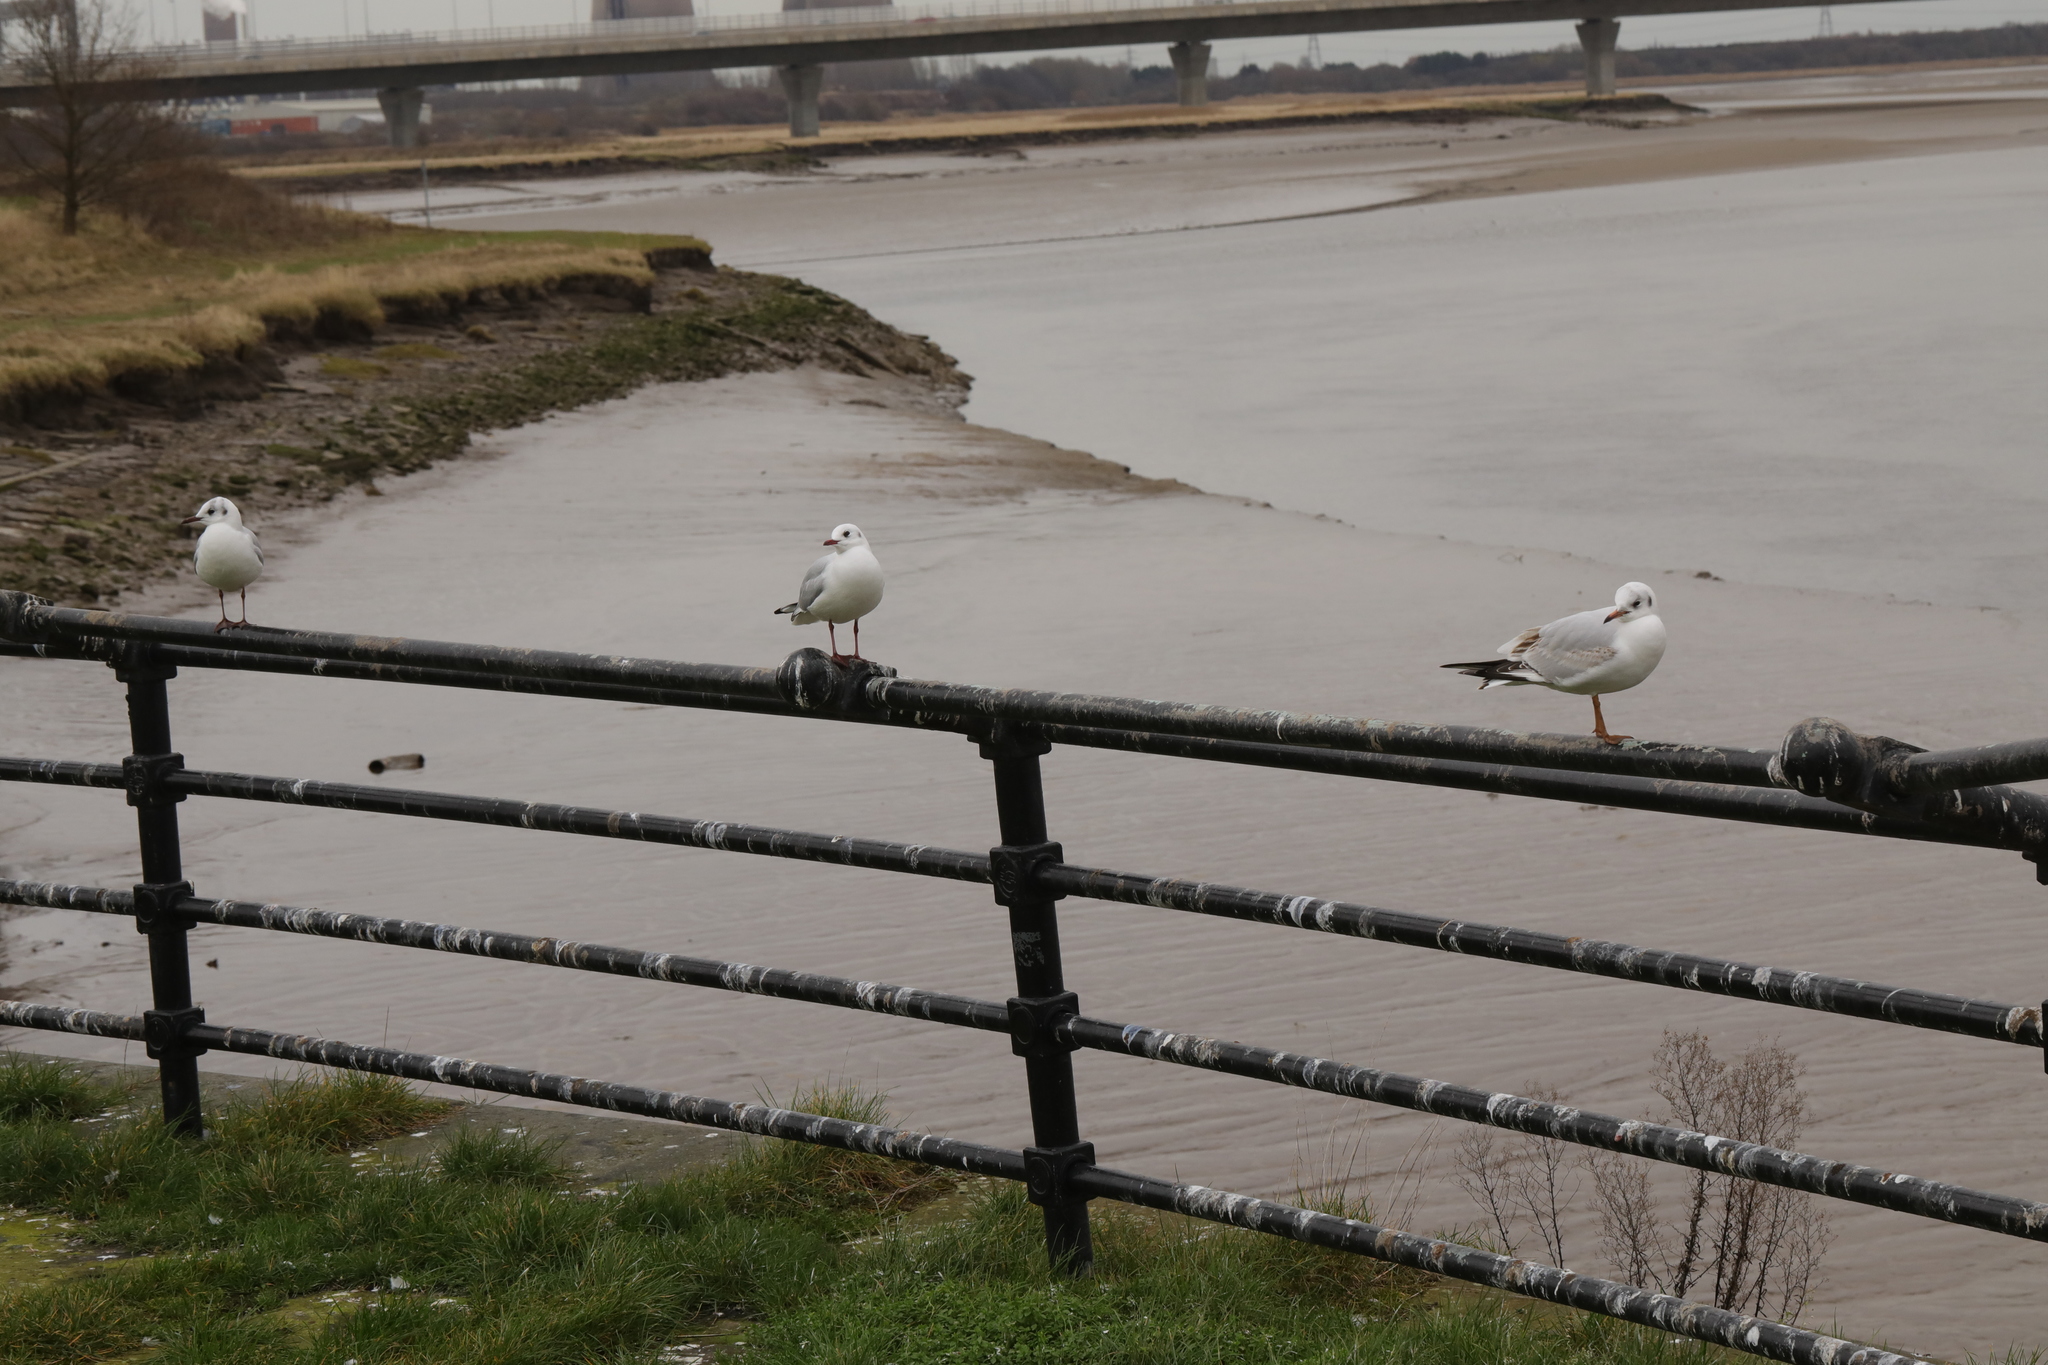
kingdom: Animalia
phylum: Chordata
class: Aves
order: Charadriiformes
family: Laridae
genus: Chroicocephalus
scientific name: Chroicocephalus ridibundus
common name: Black-headed gull
